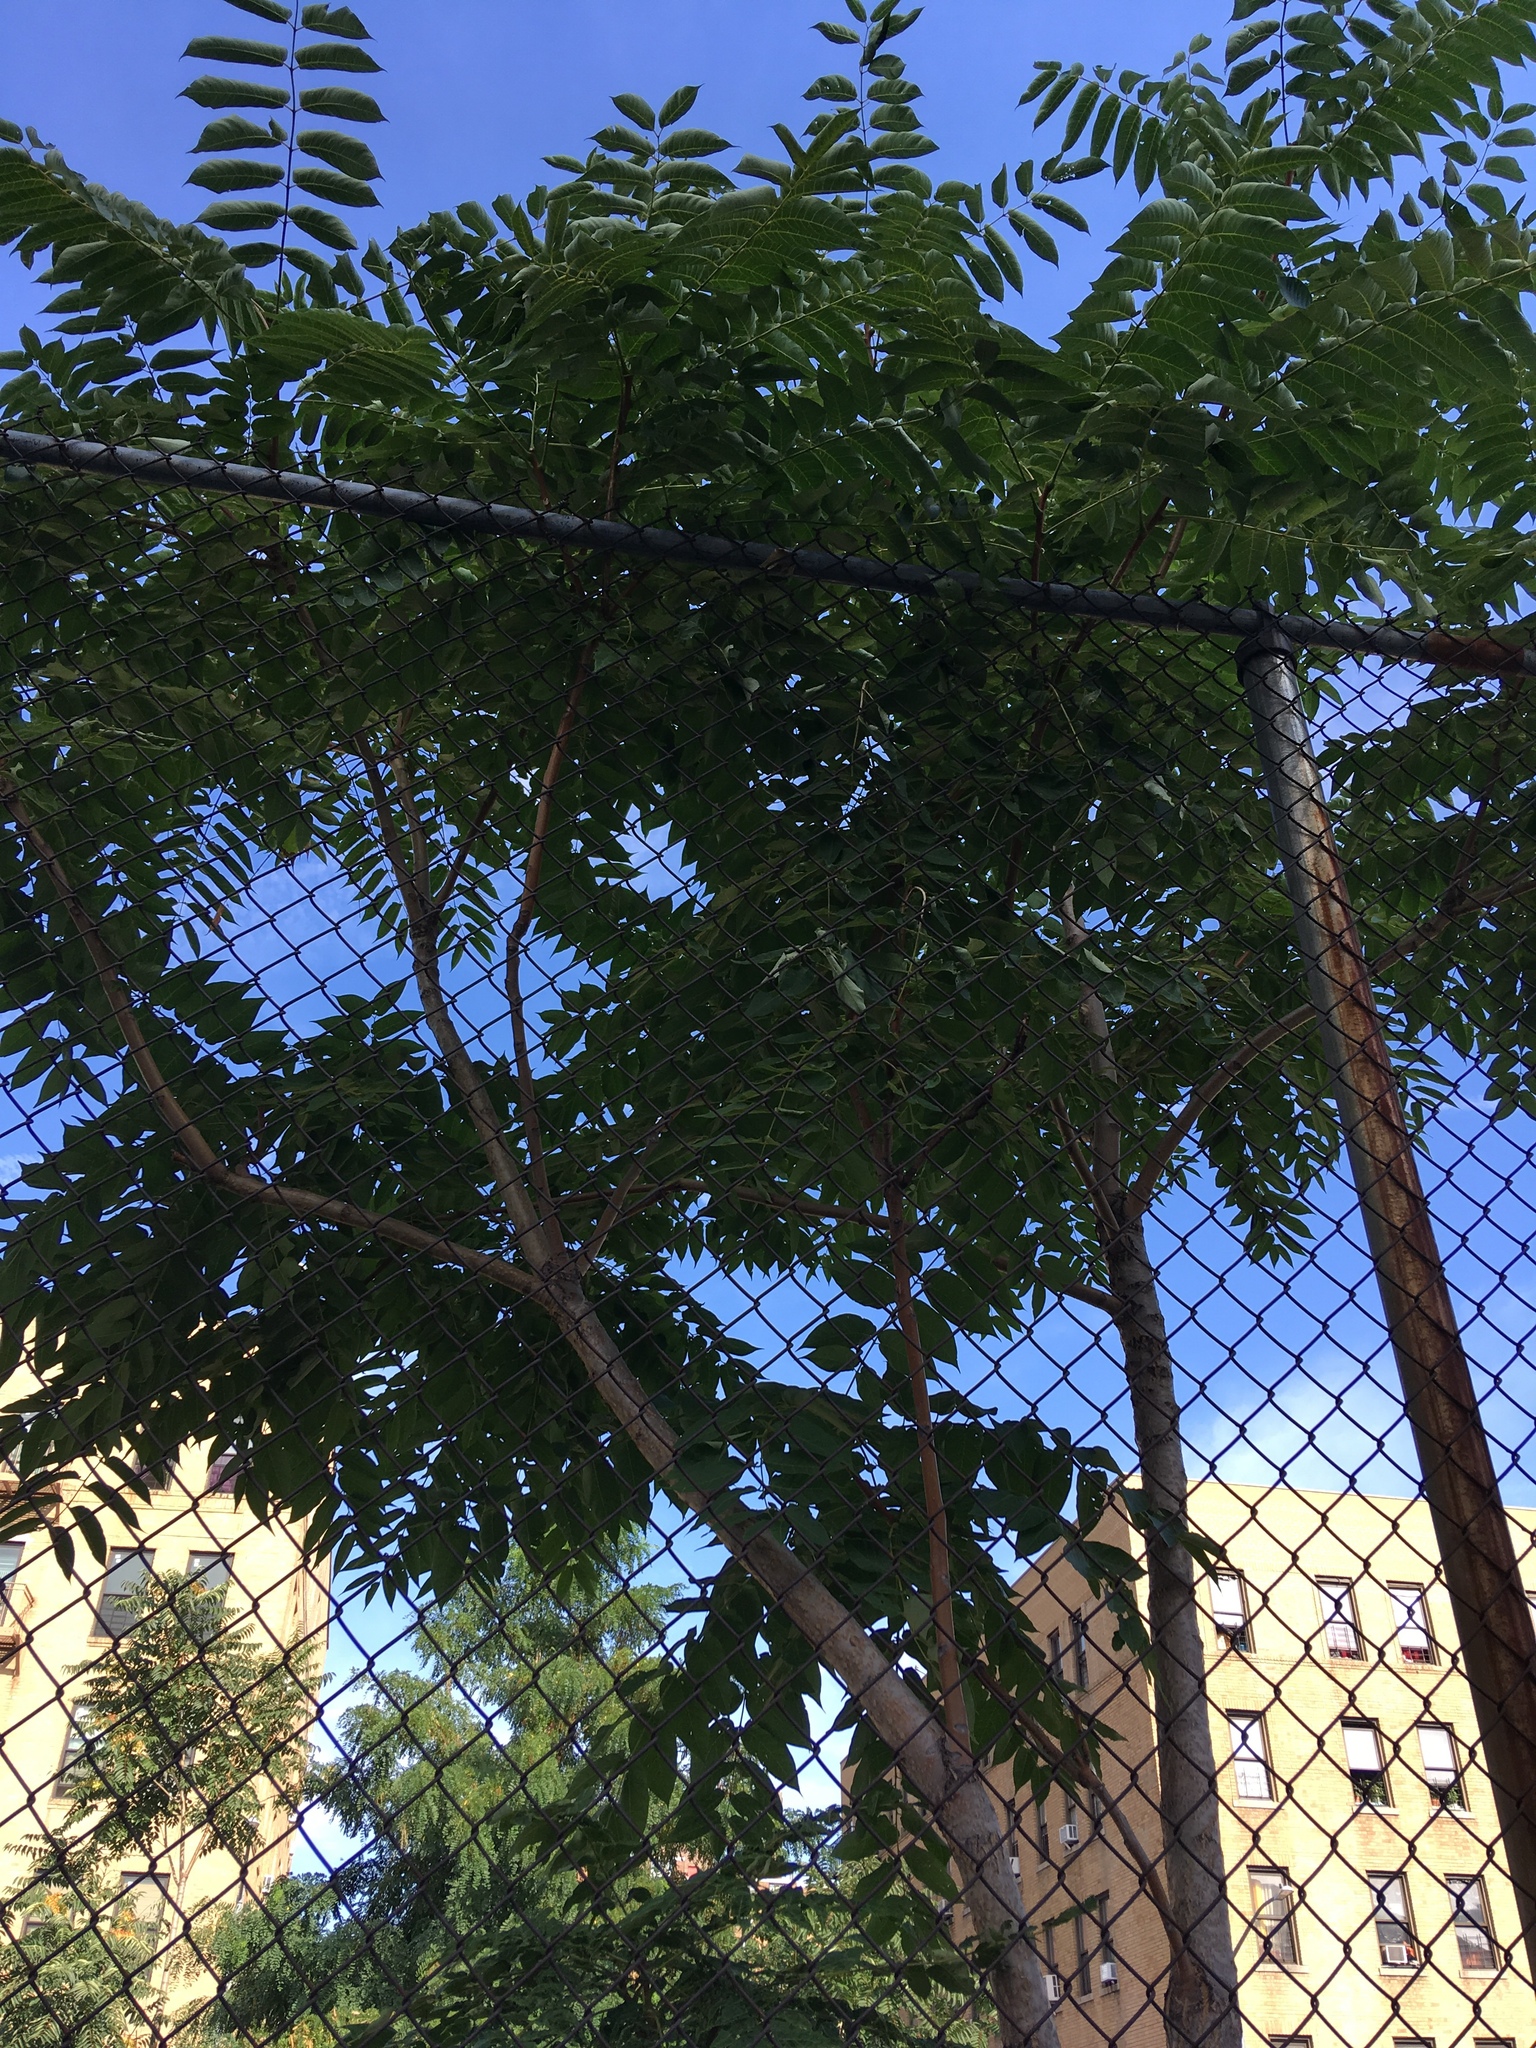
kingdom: Plantae
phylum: Tracheophyta
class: Magnoliopsida
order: Sapindales
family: Simaroubaceae
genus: Ailanthus
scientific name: Ailanthus altissima
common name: Tree-of-heaven
